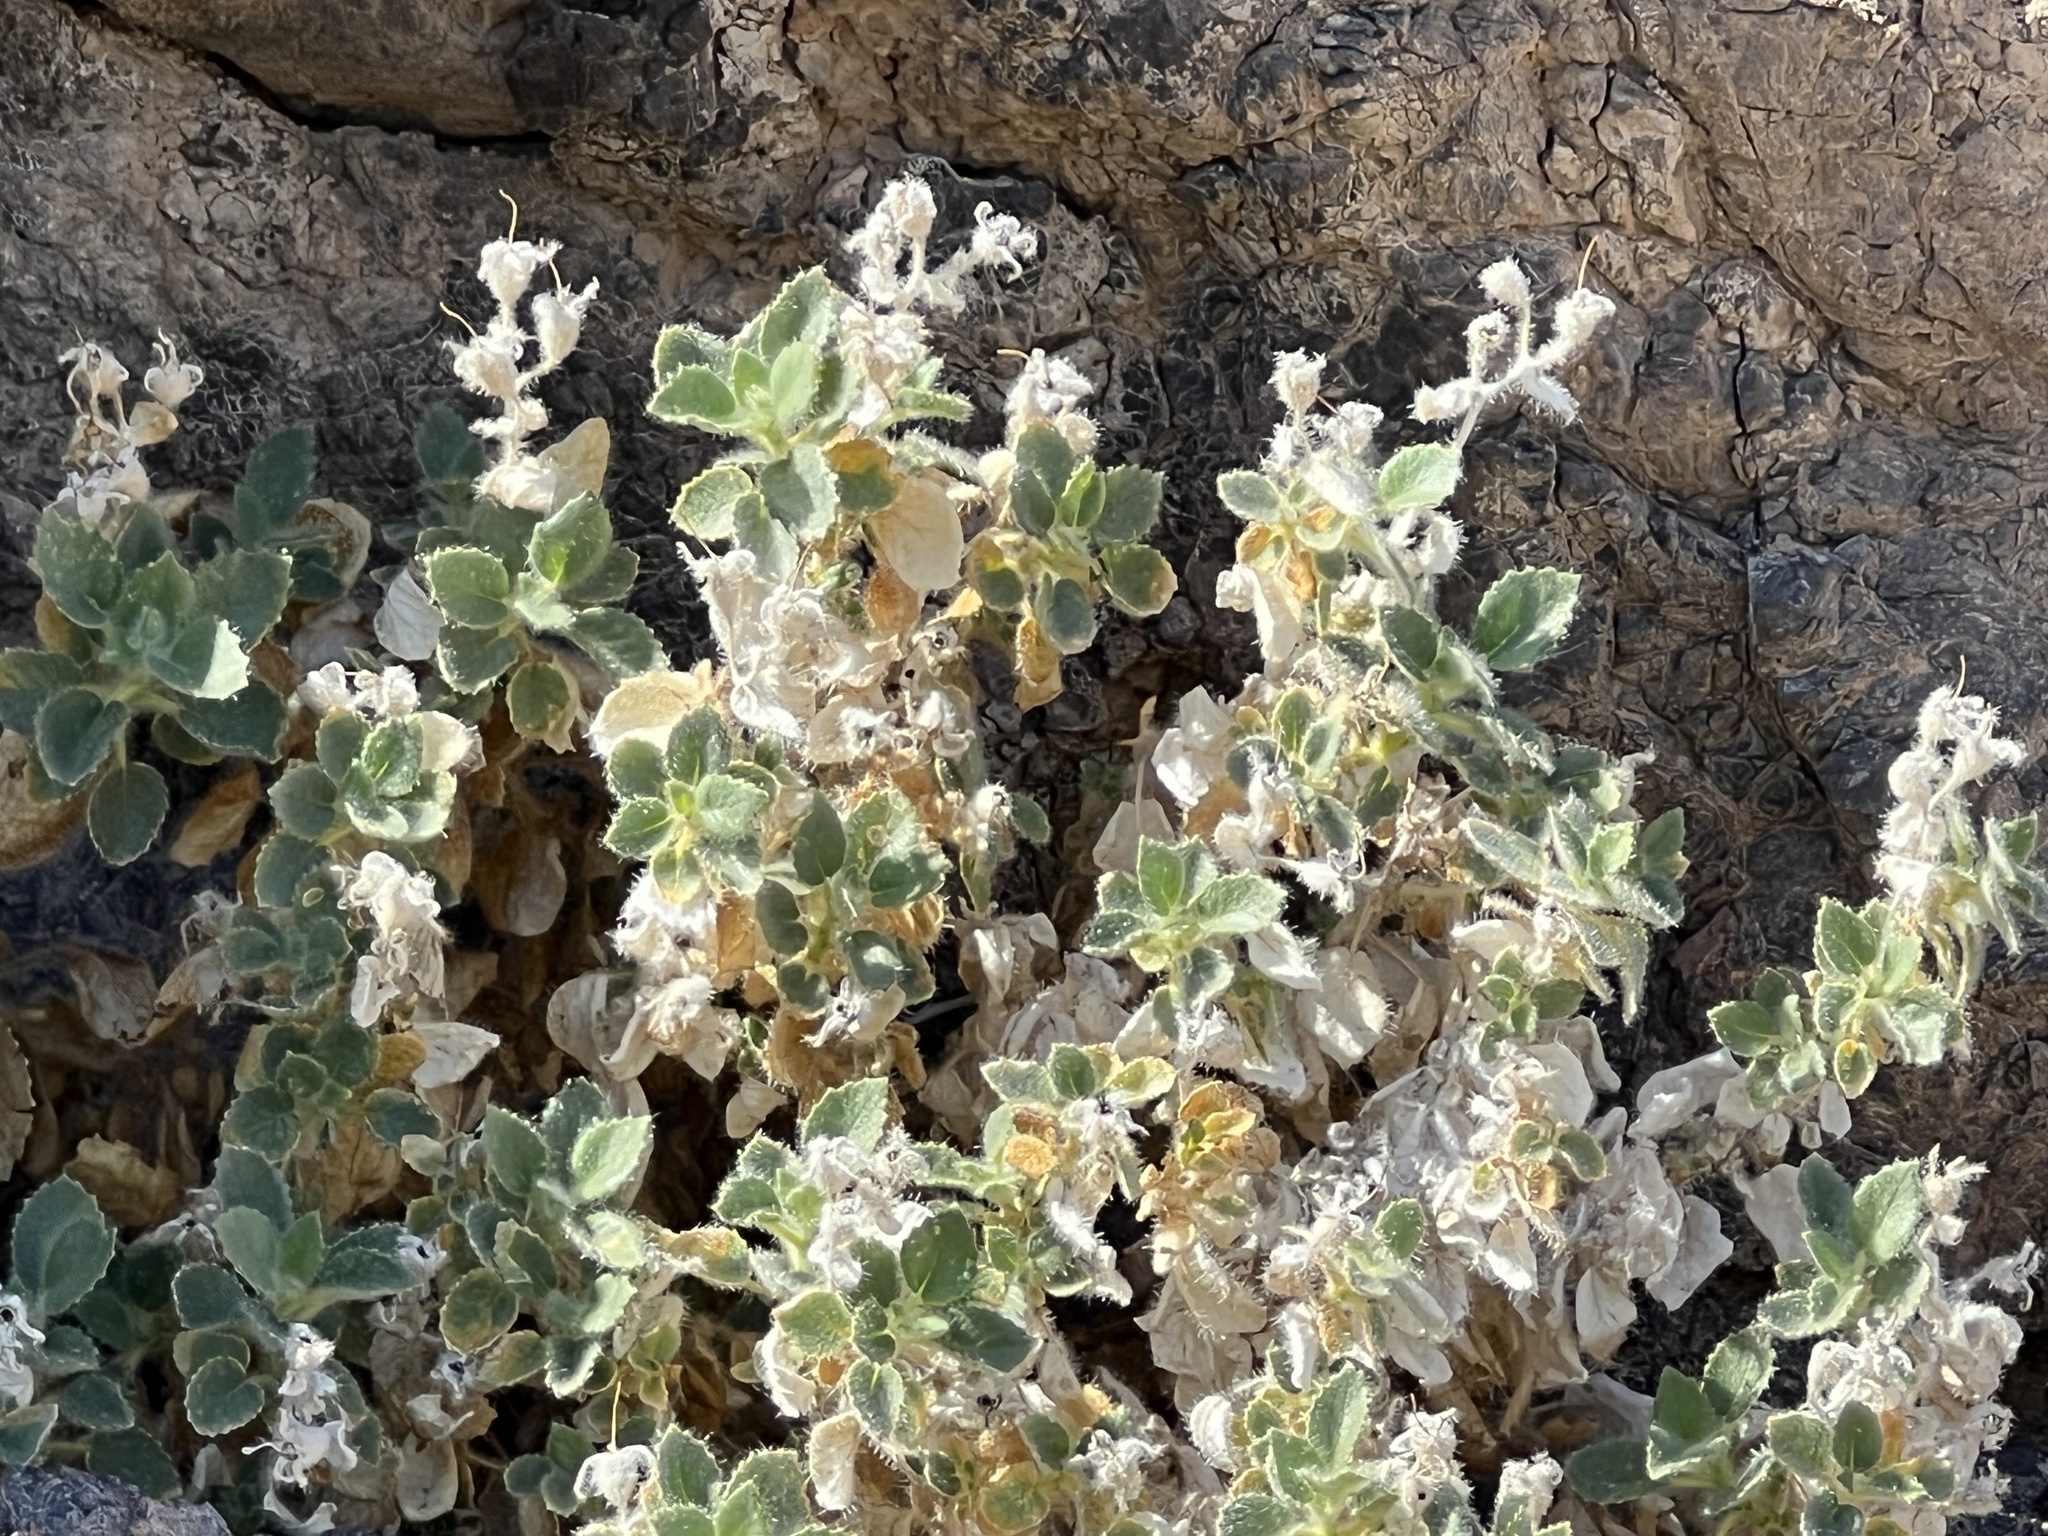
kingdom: Plantae
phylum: Tracheophyta
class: Magnoliopsida
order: Cornales
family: Loasaceae
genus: Eucnide
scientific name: Eucnide urens
